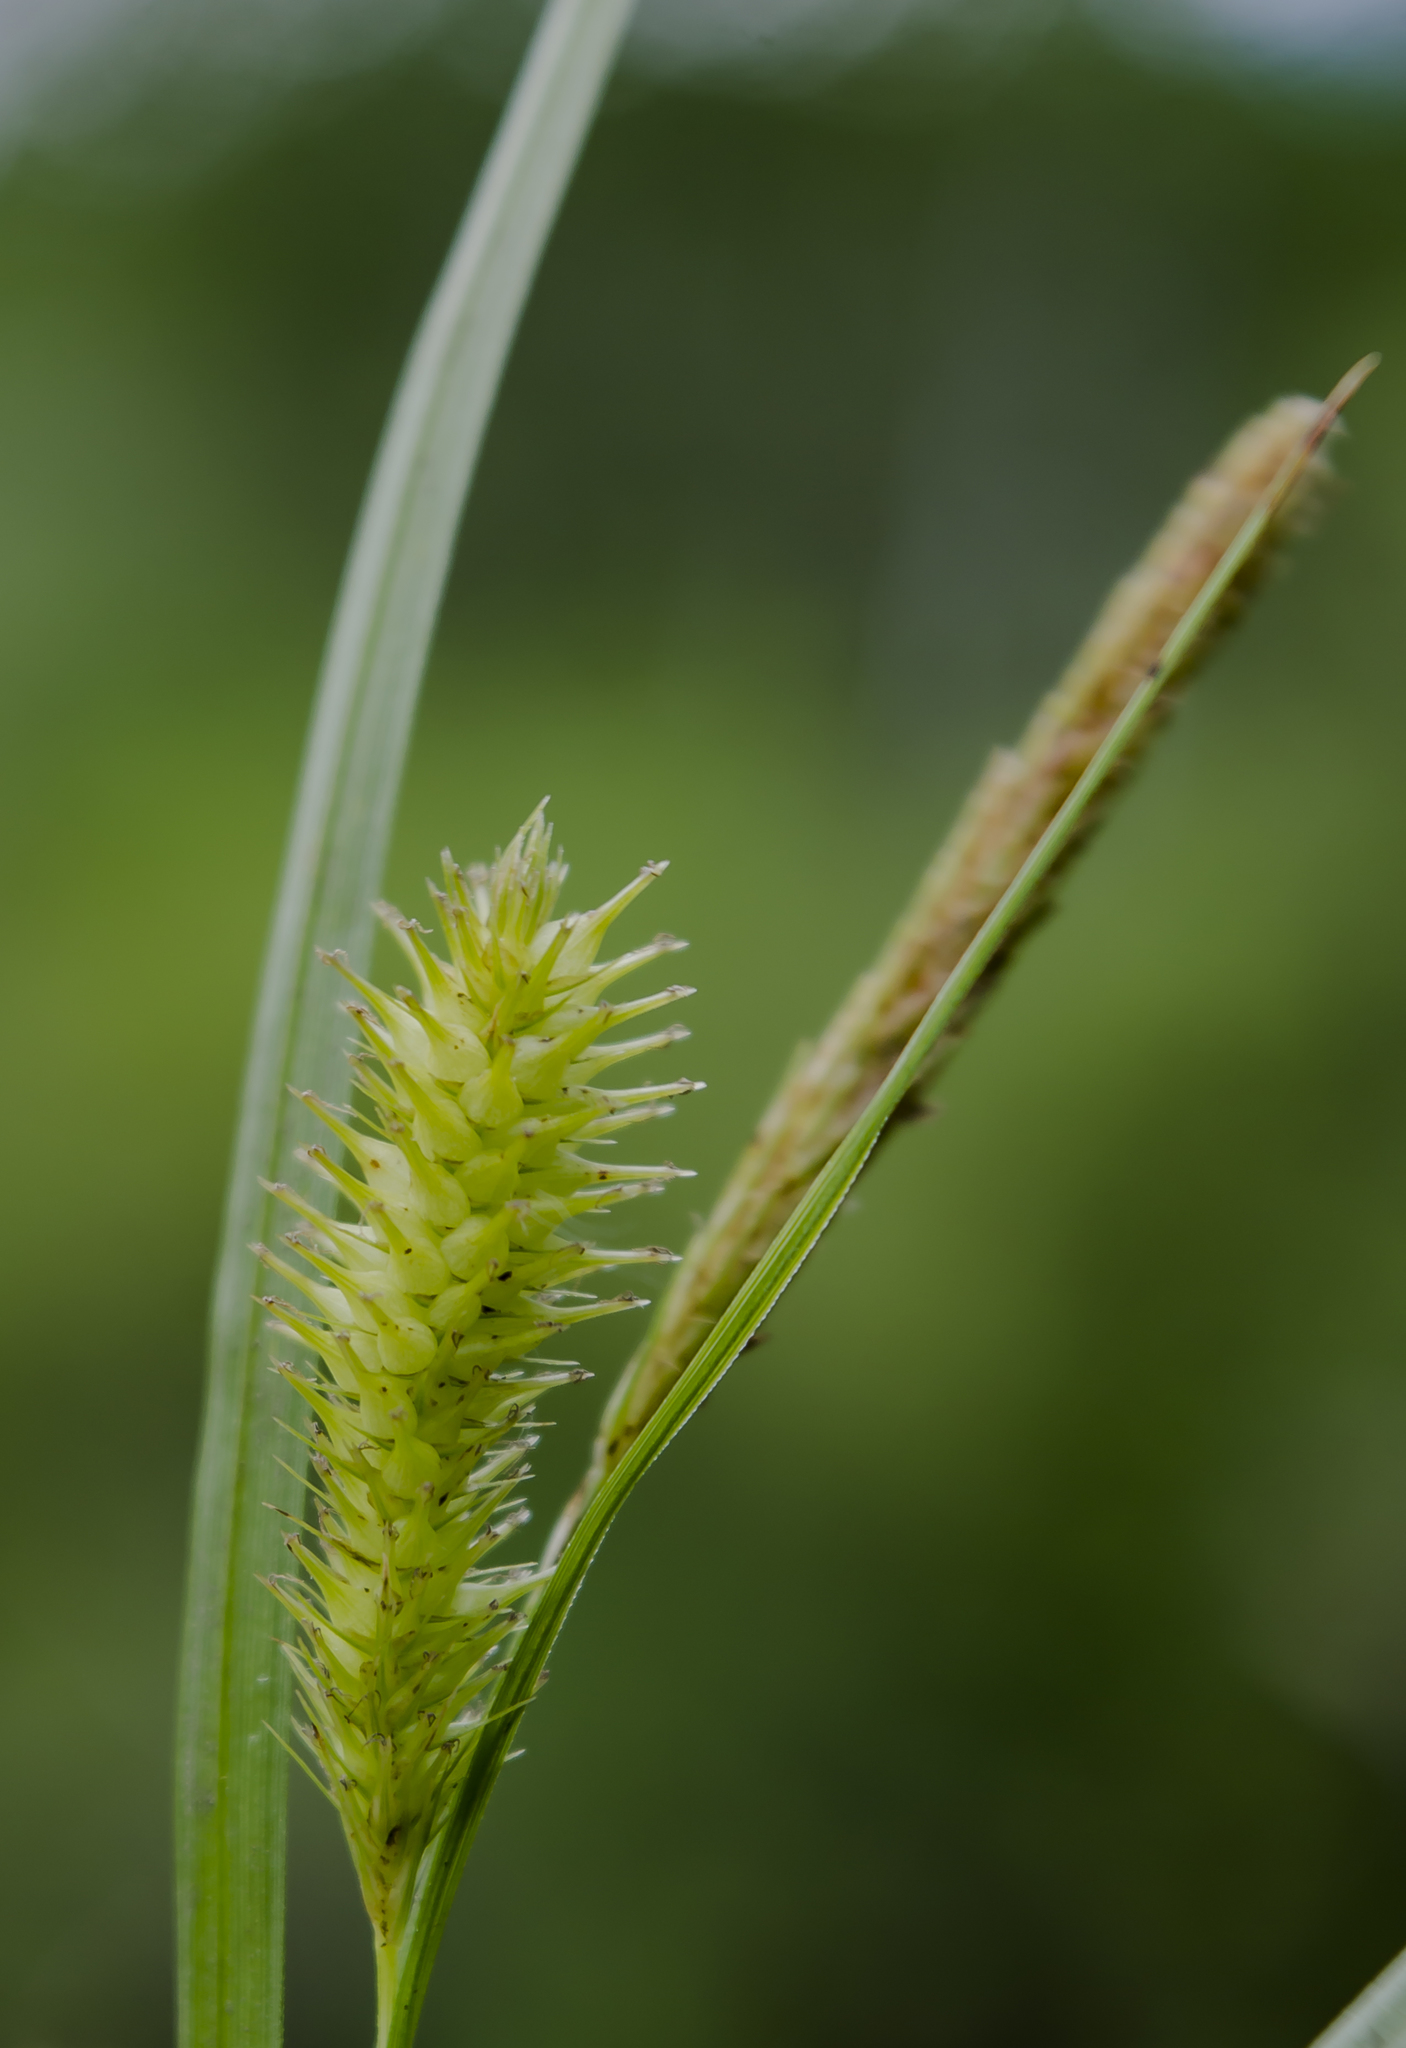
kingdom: Plantae
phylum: Tracheophyta
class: Liliopsida
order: Poales
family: Cyperaceae
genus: Carex
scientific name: Carex pseudocyperus
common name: Cyperus sedge
